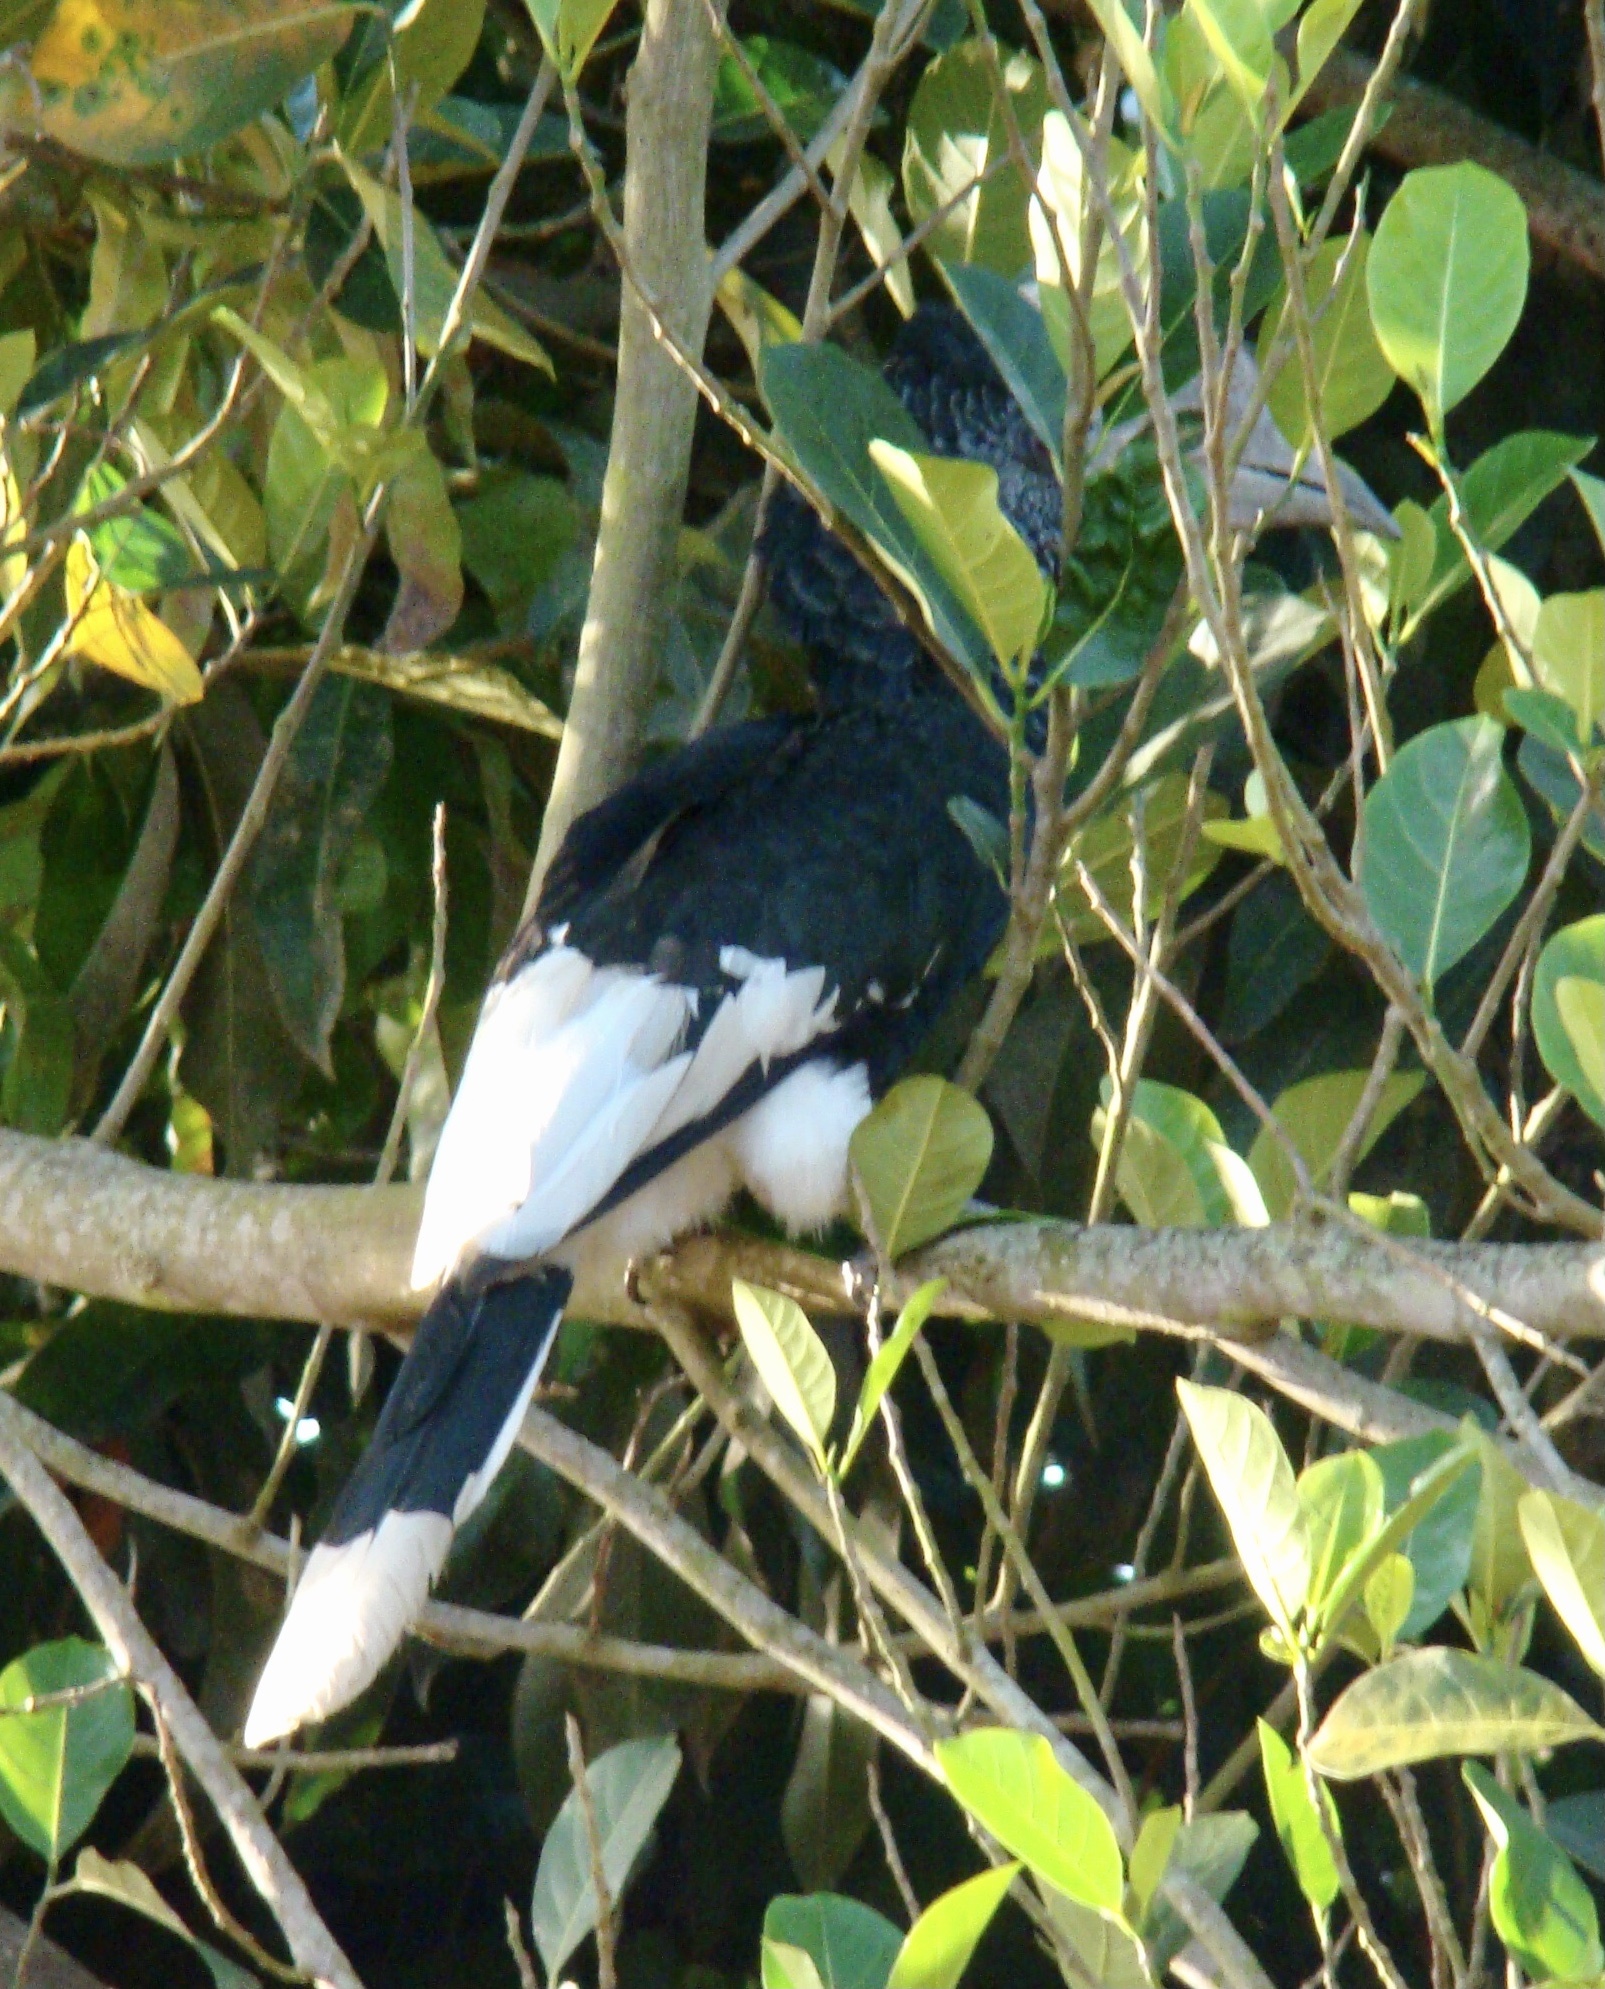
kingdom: Animalia
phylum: Chordata
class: Aves
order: Bucerotiformes
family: Bucerotidae
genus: Bycanistes
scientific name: Bycanistes subcylindricus
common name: Black-and-white-casqued hornbill
